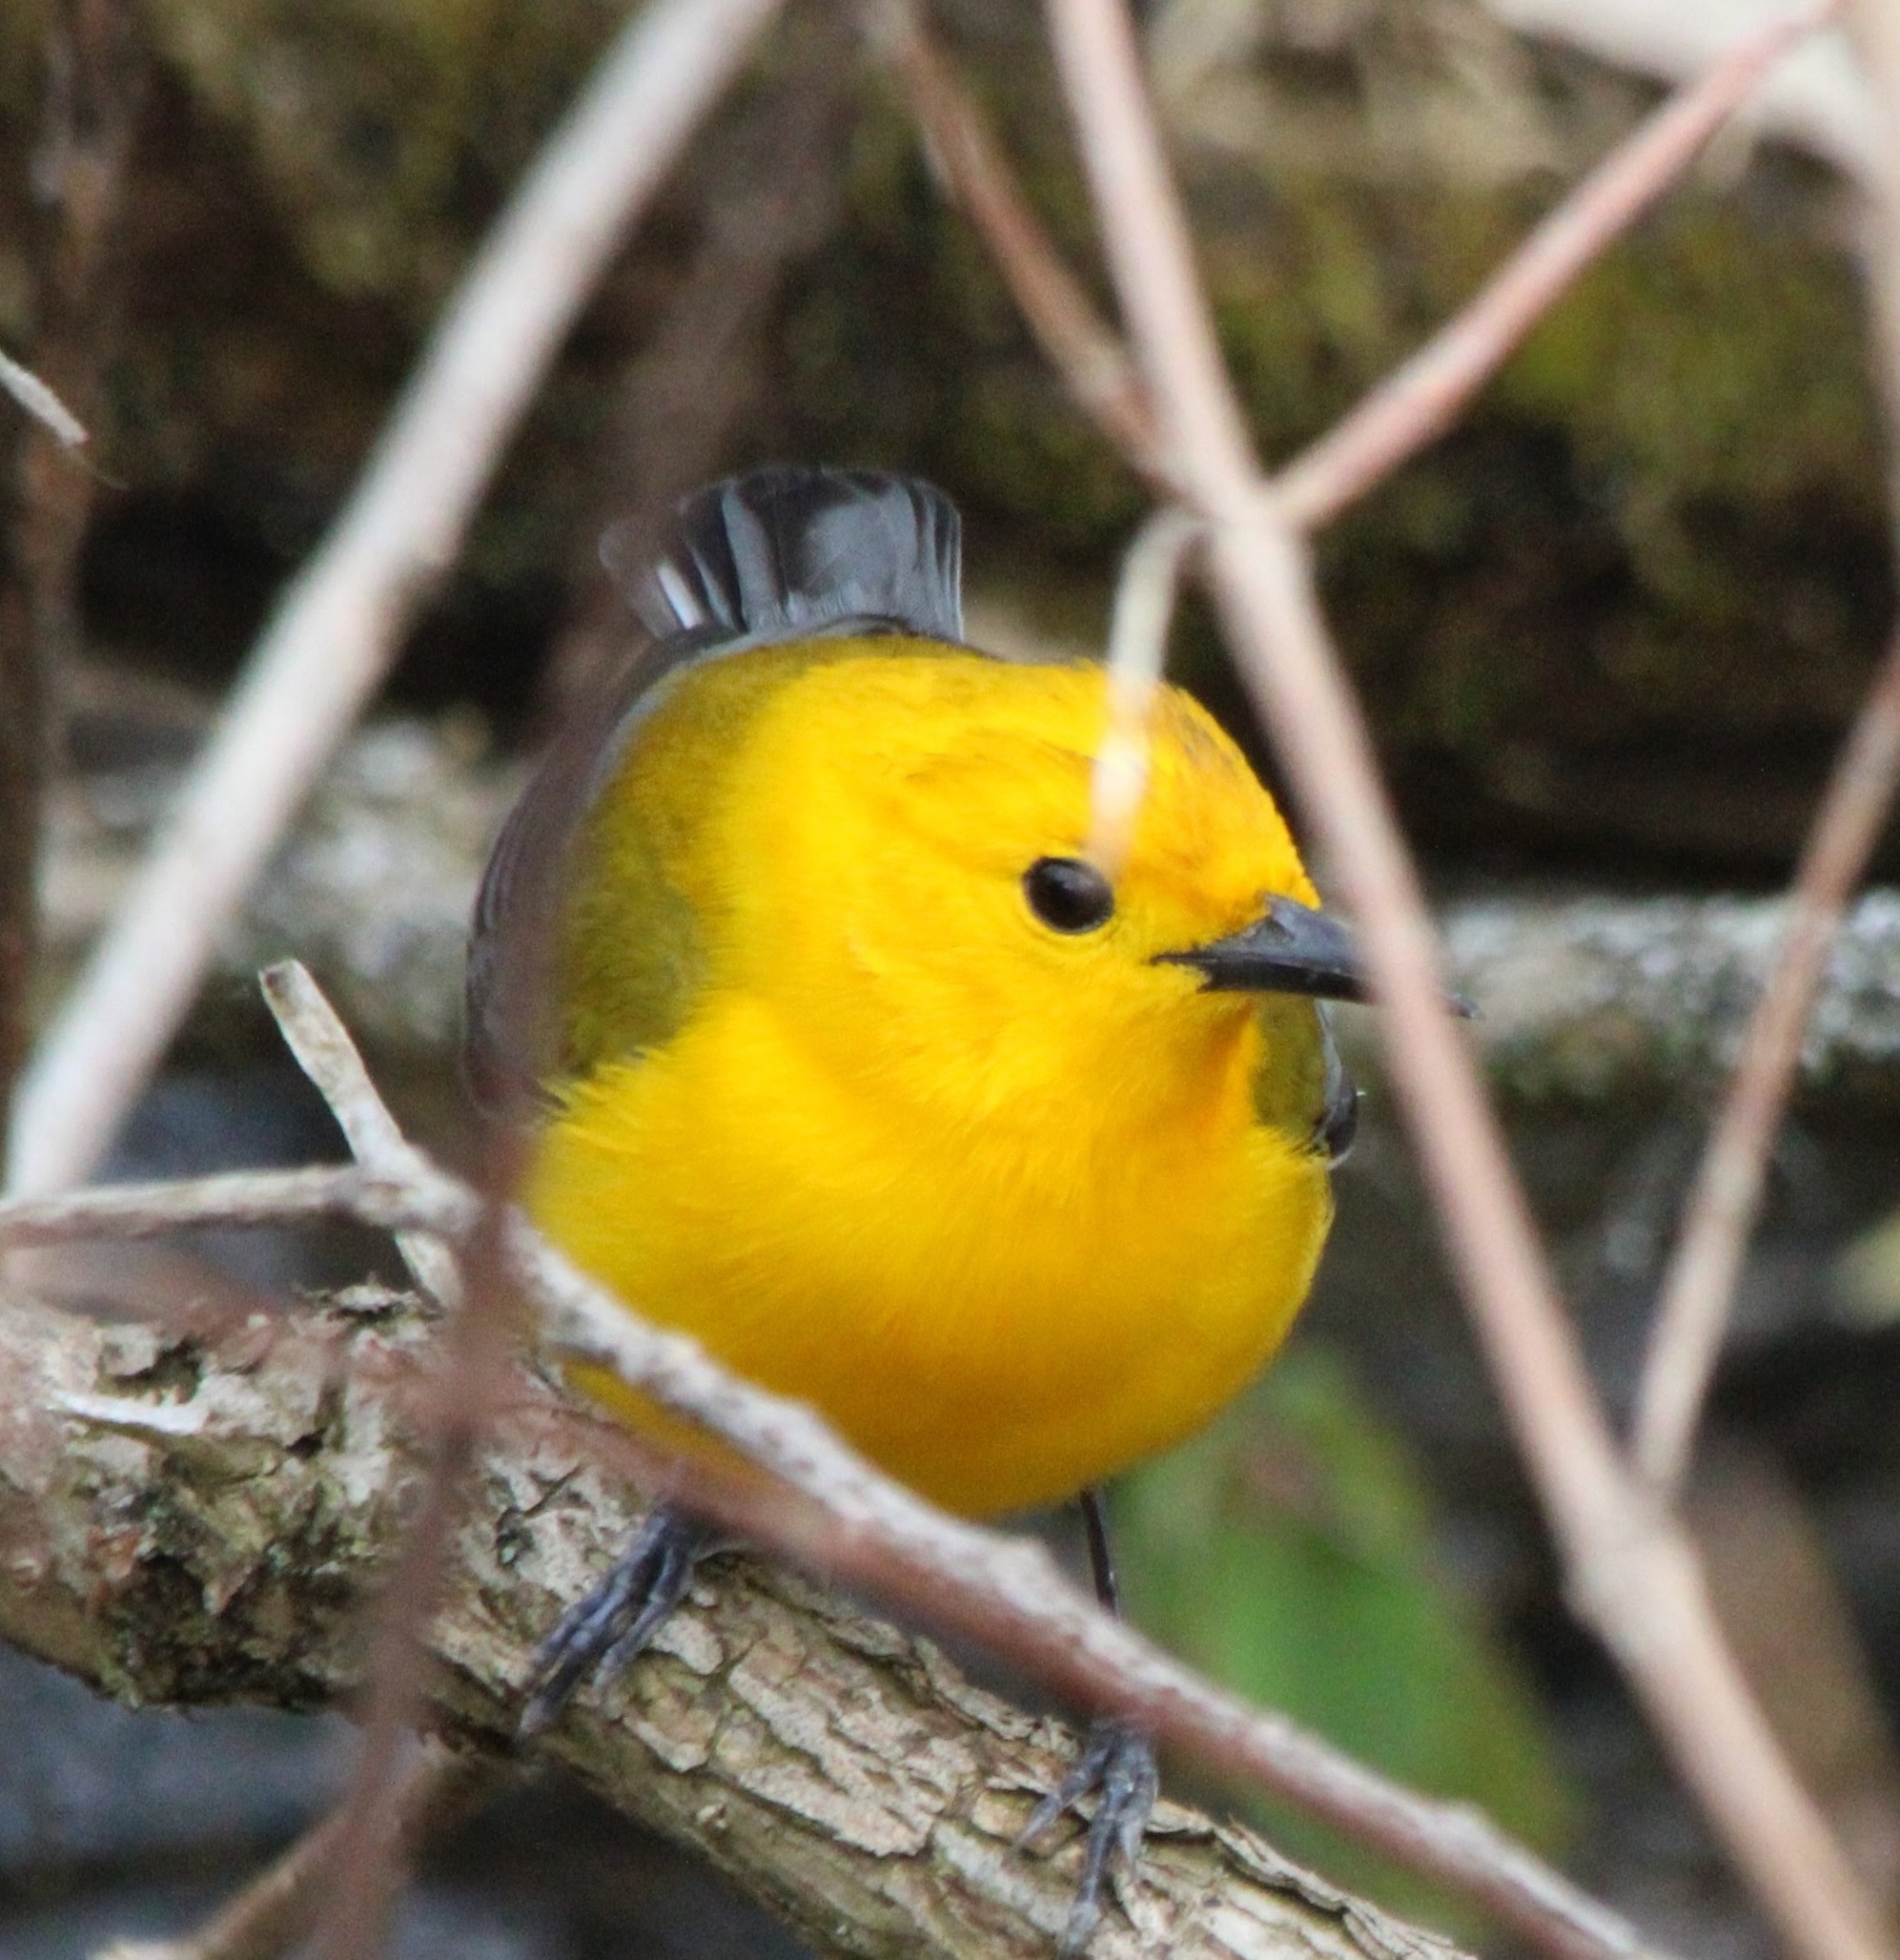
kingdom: Animalia
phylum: Chordata
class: Aves
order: Passeriformes
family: Parulidae
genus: Protonotaria
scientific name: Protonotaria citrea
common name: Prothonotary warbler
